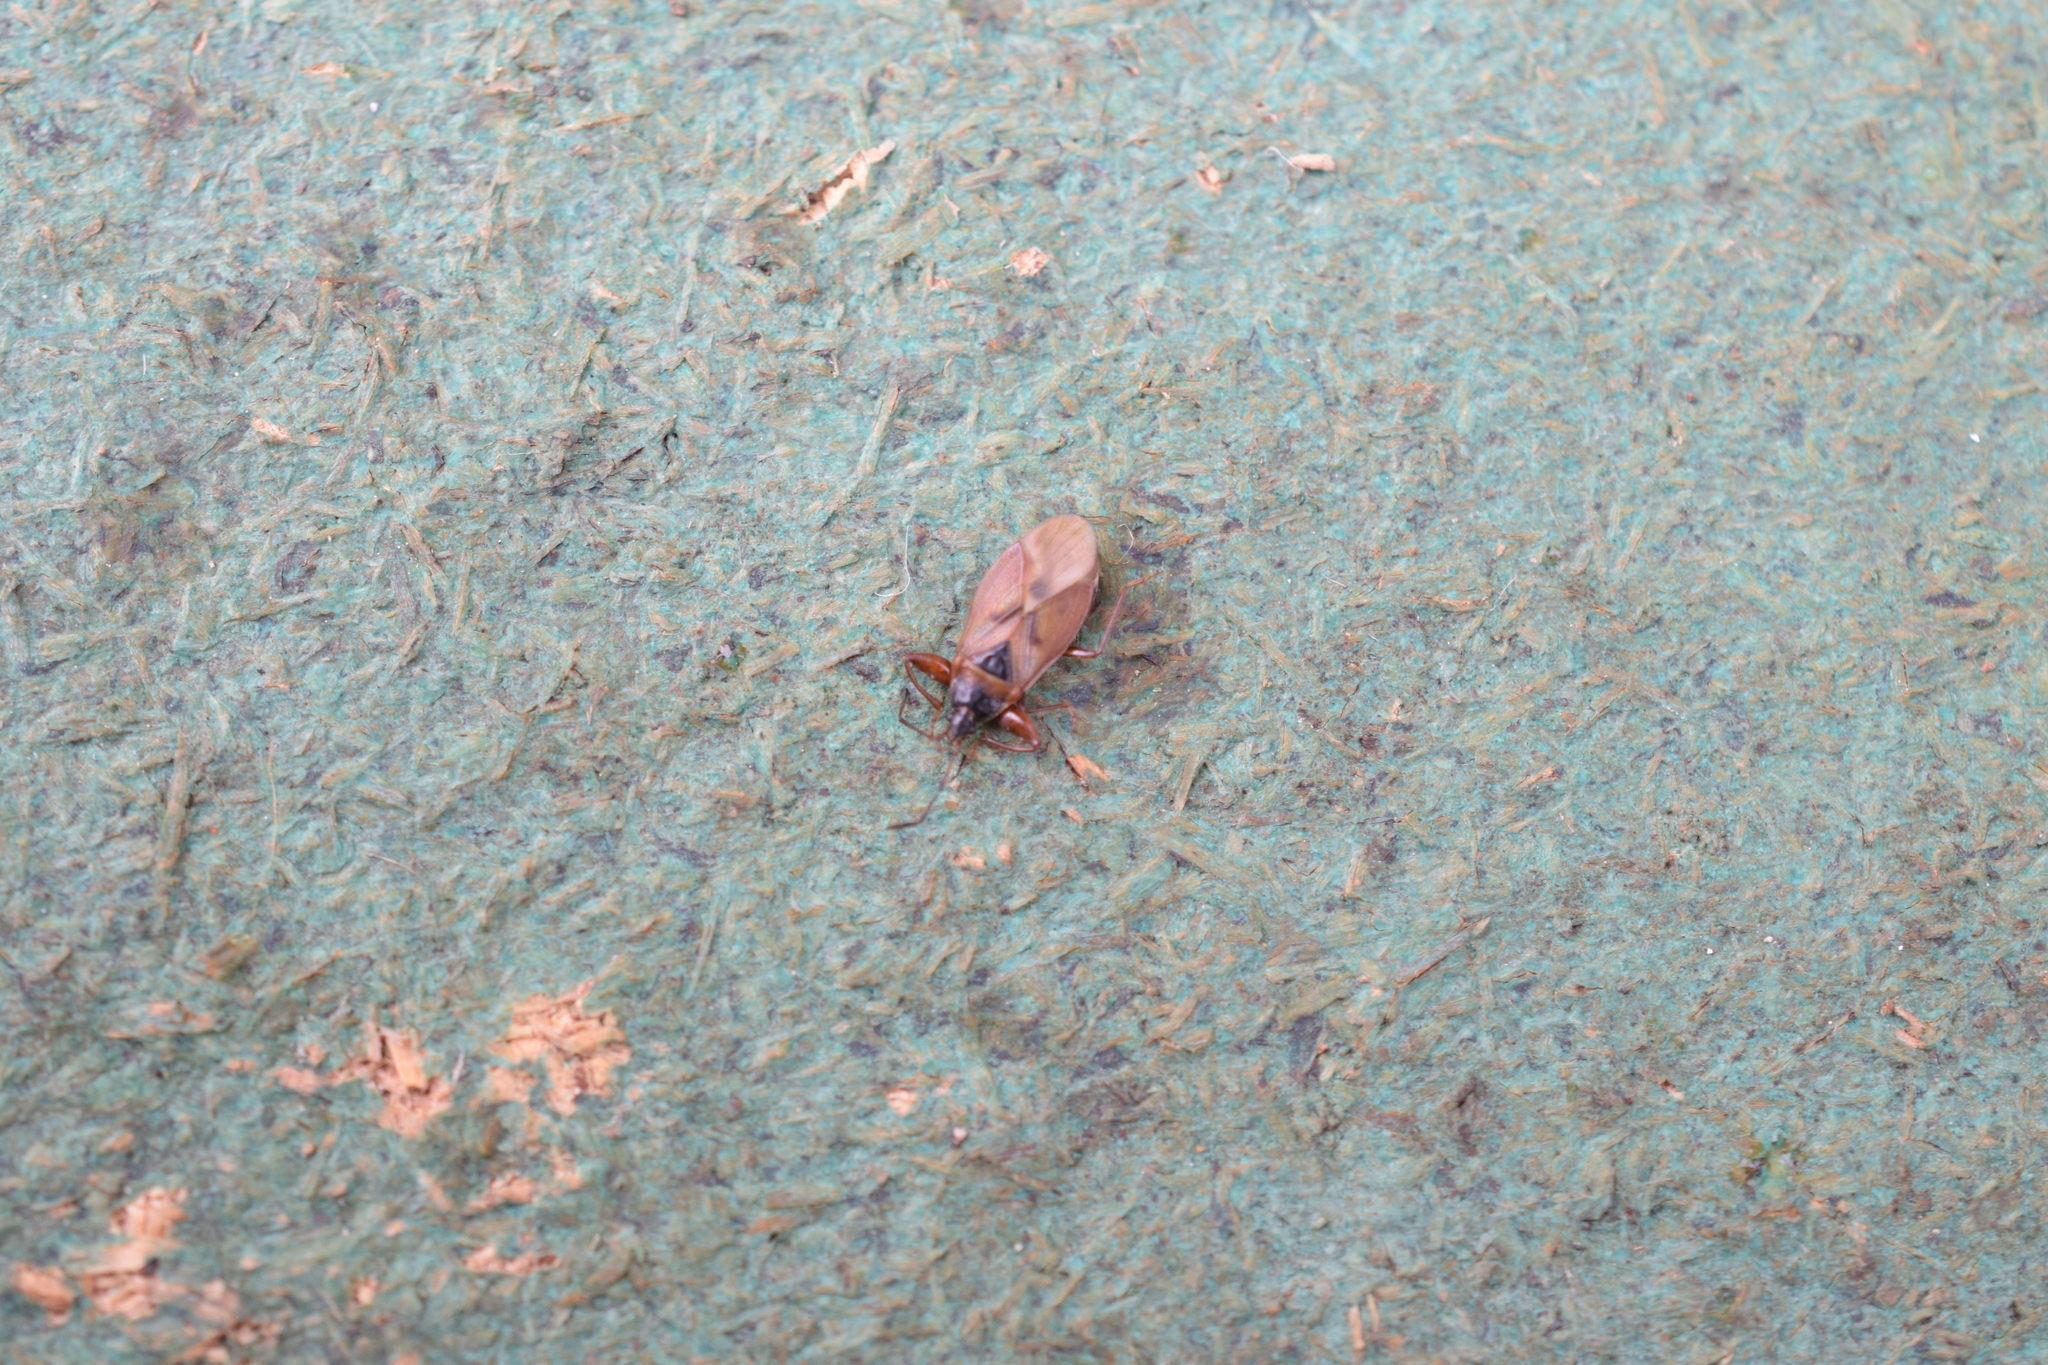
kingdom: Animalia
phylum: Arthropoda
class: Insecta
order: Hemiptera
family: Rhyparochromidae
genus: Gastrodes
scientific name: Gastrodes abietum
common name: Spruce cone bug
